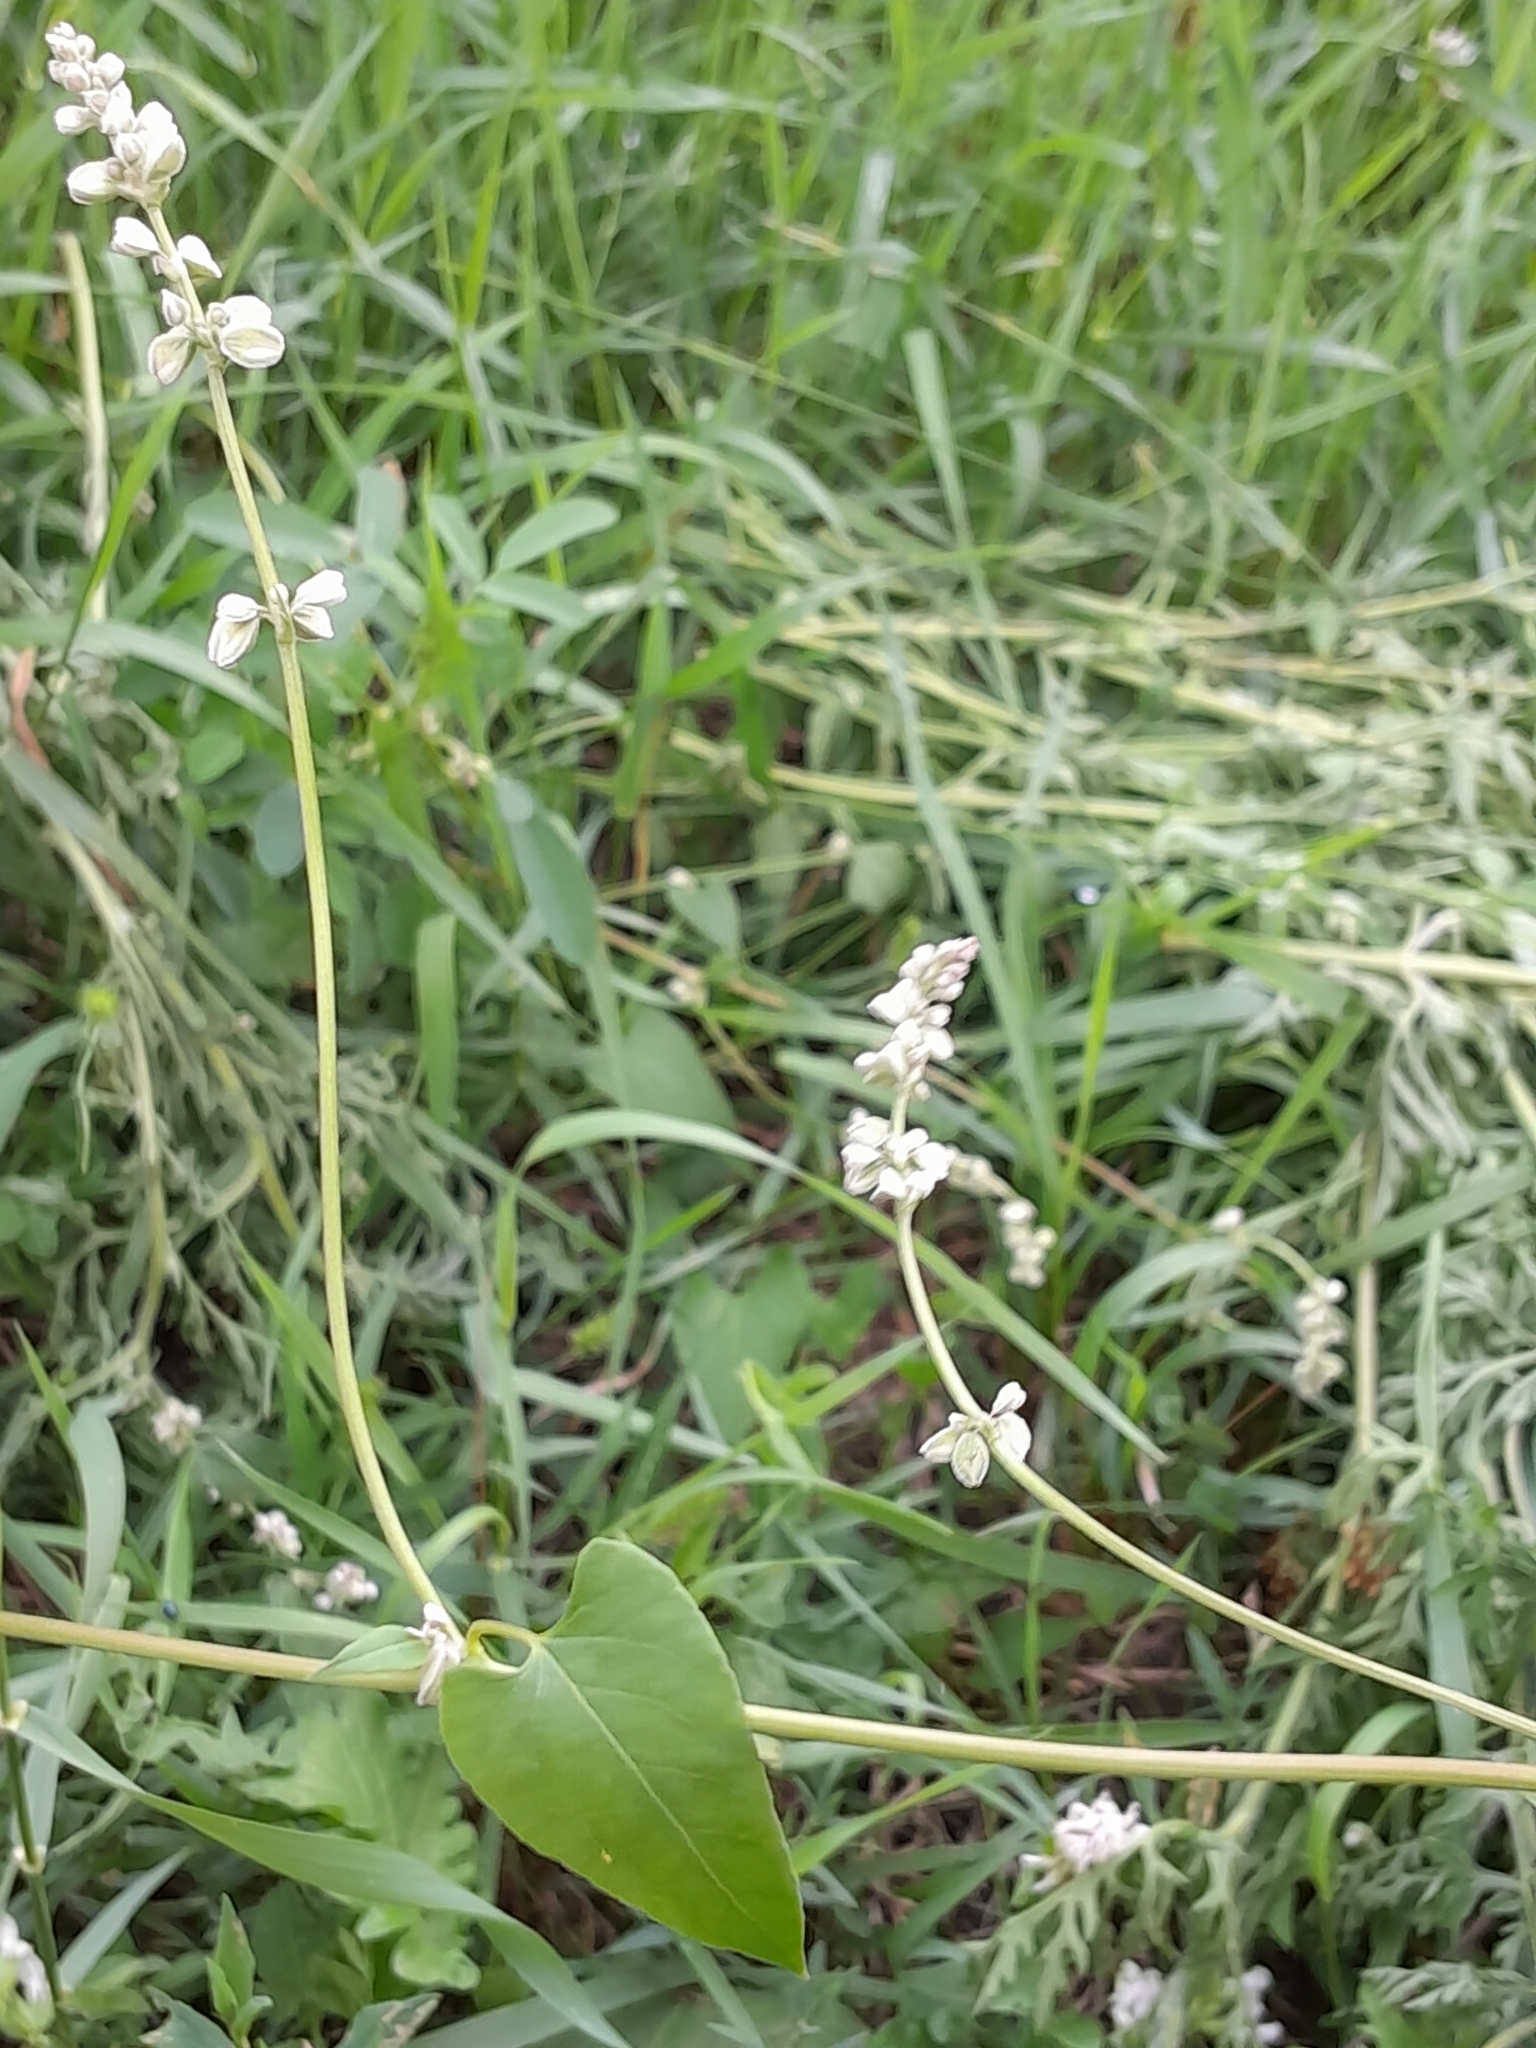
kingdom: Plantae
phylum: Tracheophyta
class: Magnoliopsida
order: Caryophyllales
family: Polygonaceae
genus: Fallopia
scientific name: Fallopia convolvulus
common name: Black bindweed
